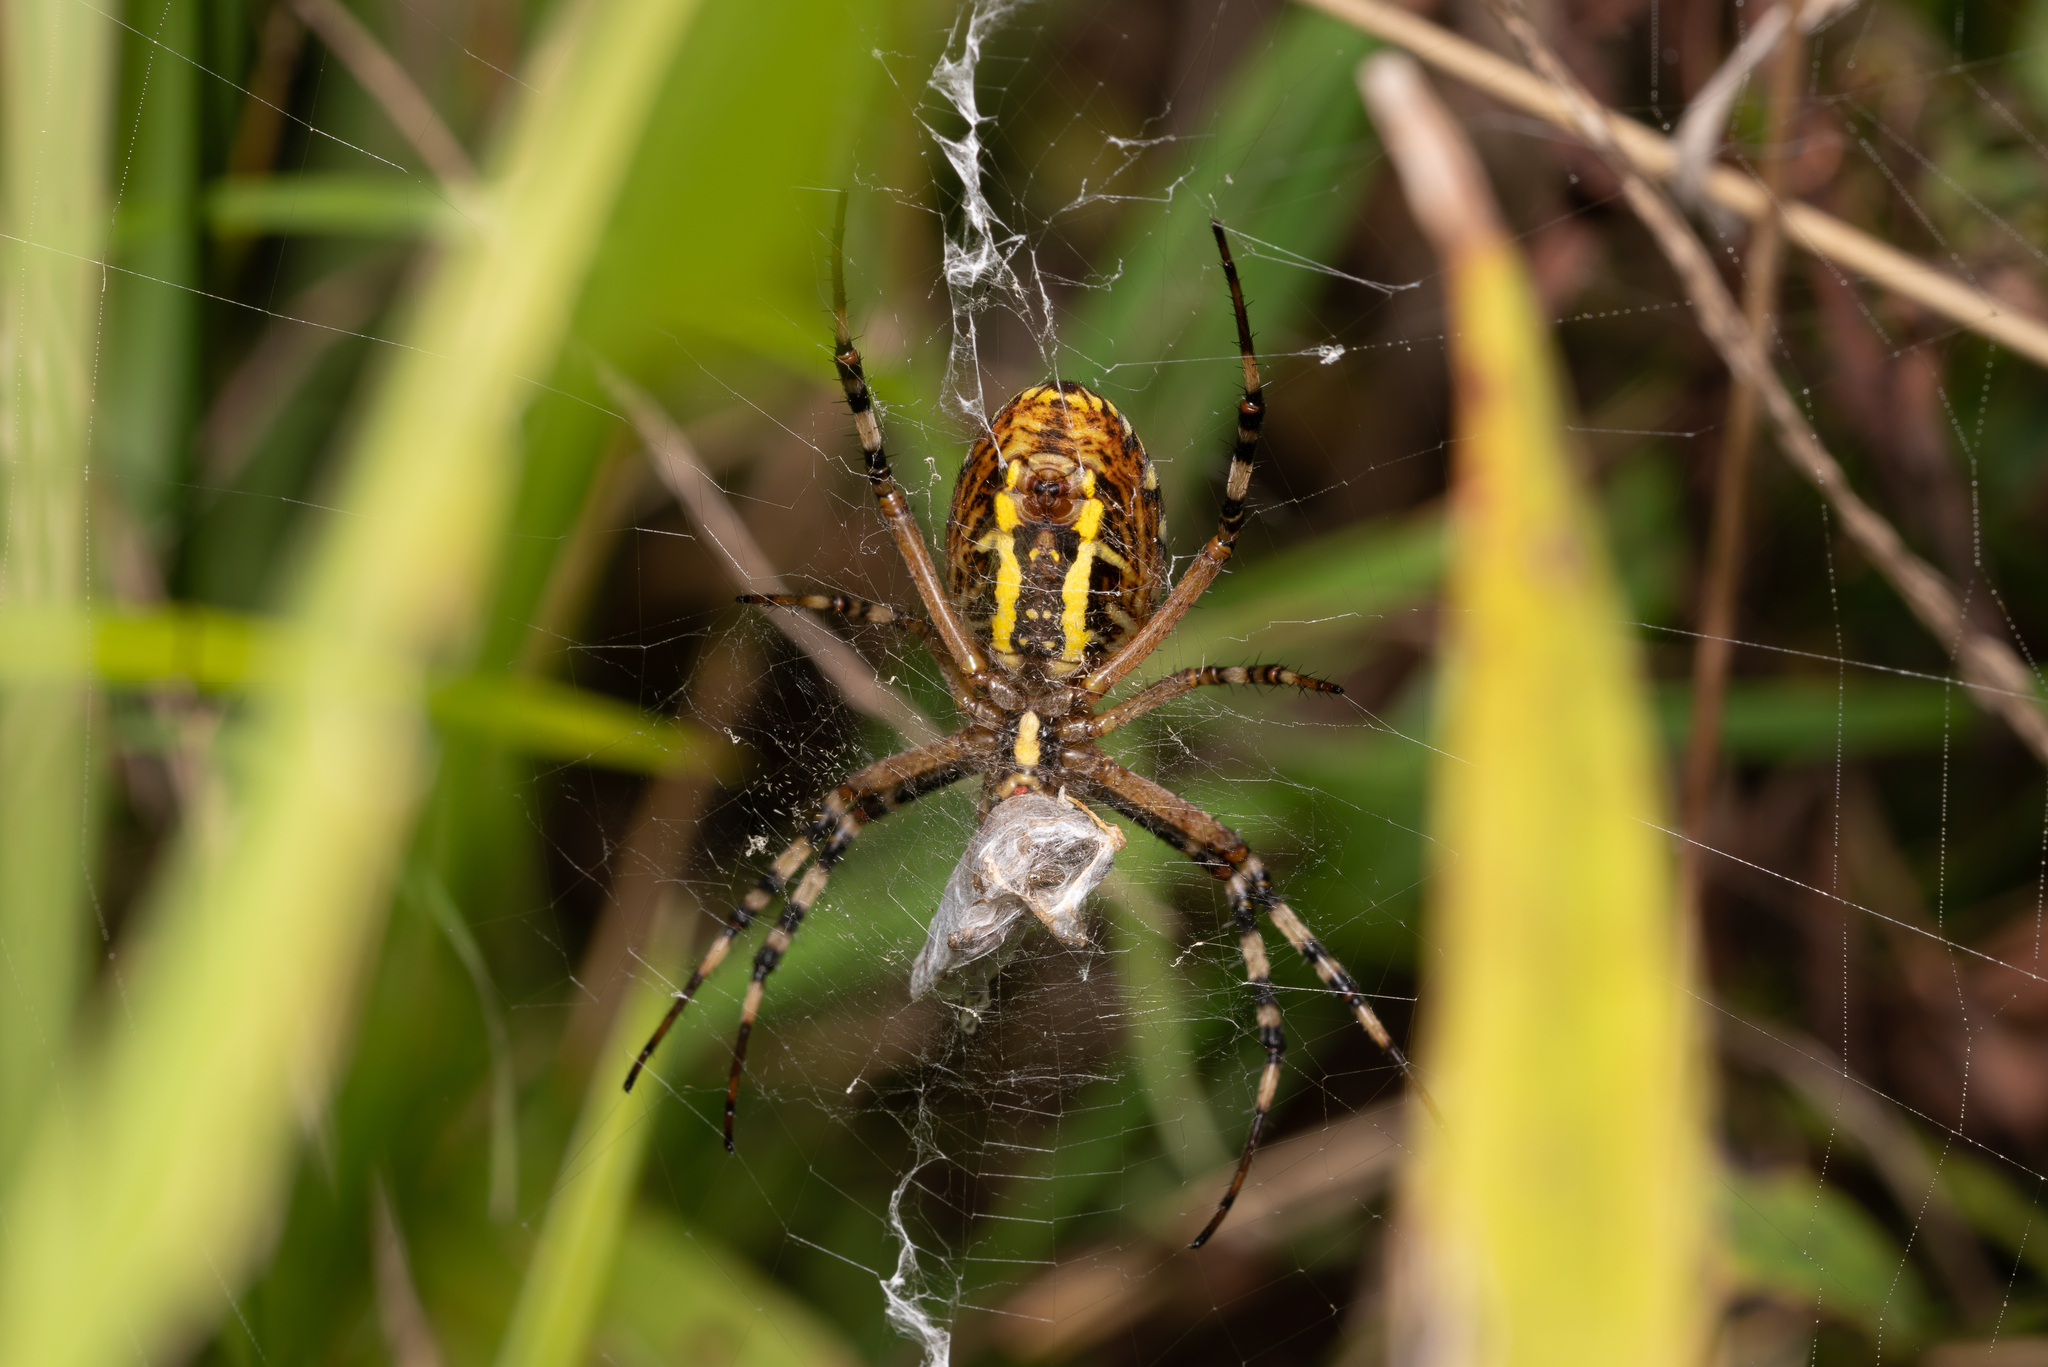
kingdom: Animalia
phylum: Arthropoda
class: Arachnida
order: Araneae
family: Araneidae
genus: Argiope
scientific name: Argiope bruennichi
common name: Wasp spider
